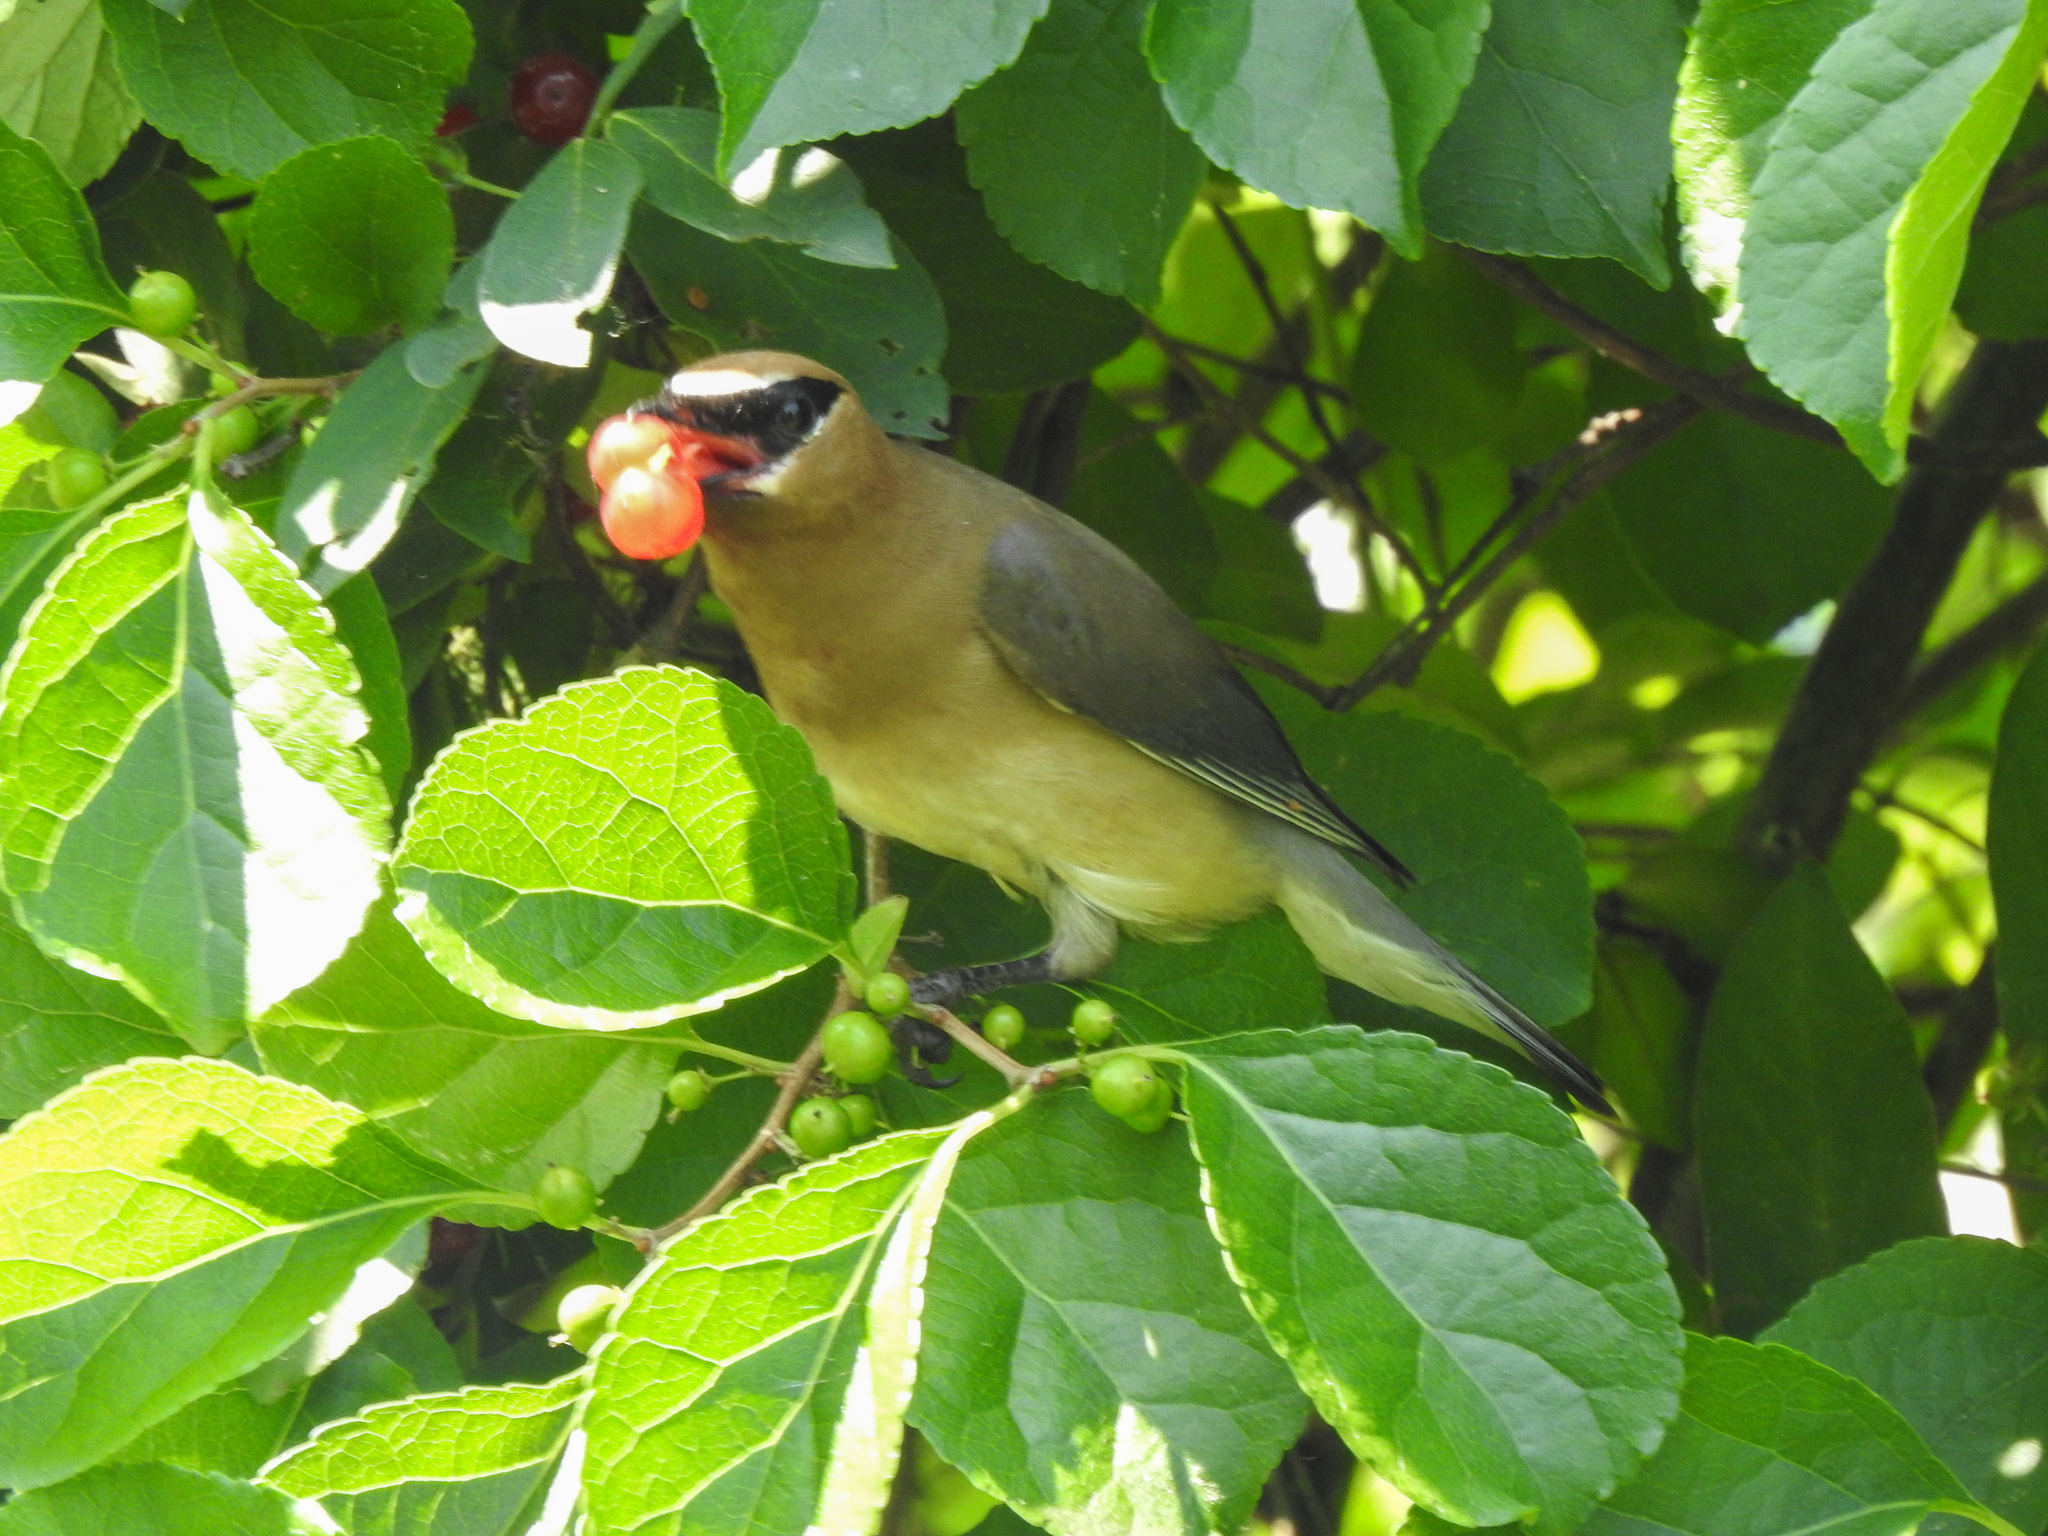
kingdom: Animalia
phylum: Chordata
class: Aves
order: Passeriformes
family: Bombycillidae
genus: Bombycilla
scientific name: Bombycilla cedrorum
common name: Cedar waxwing
